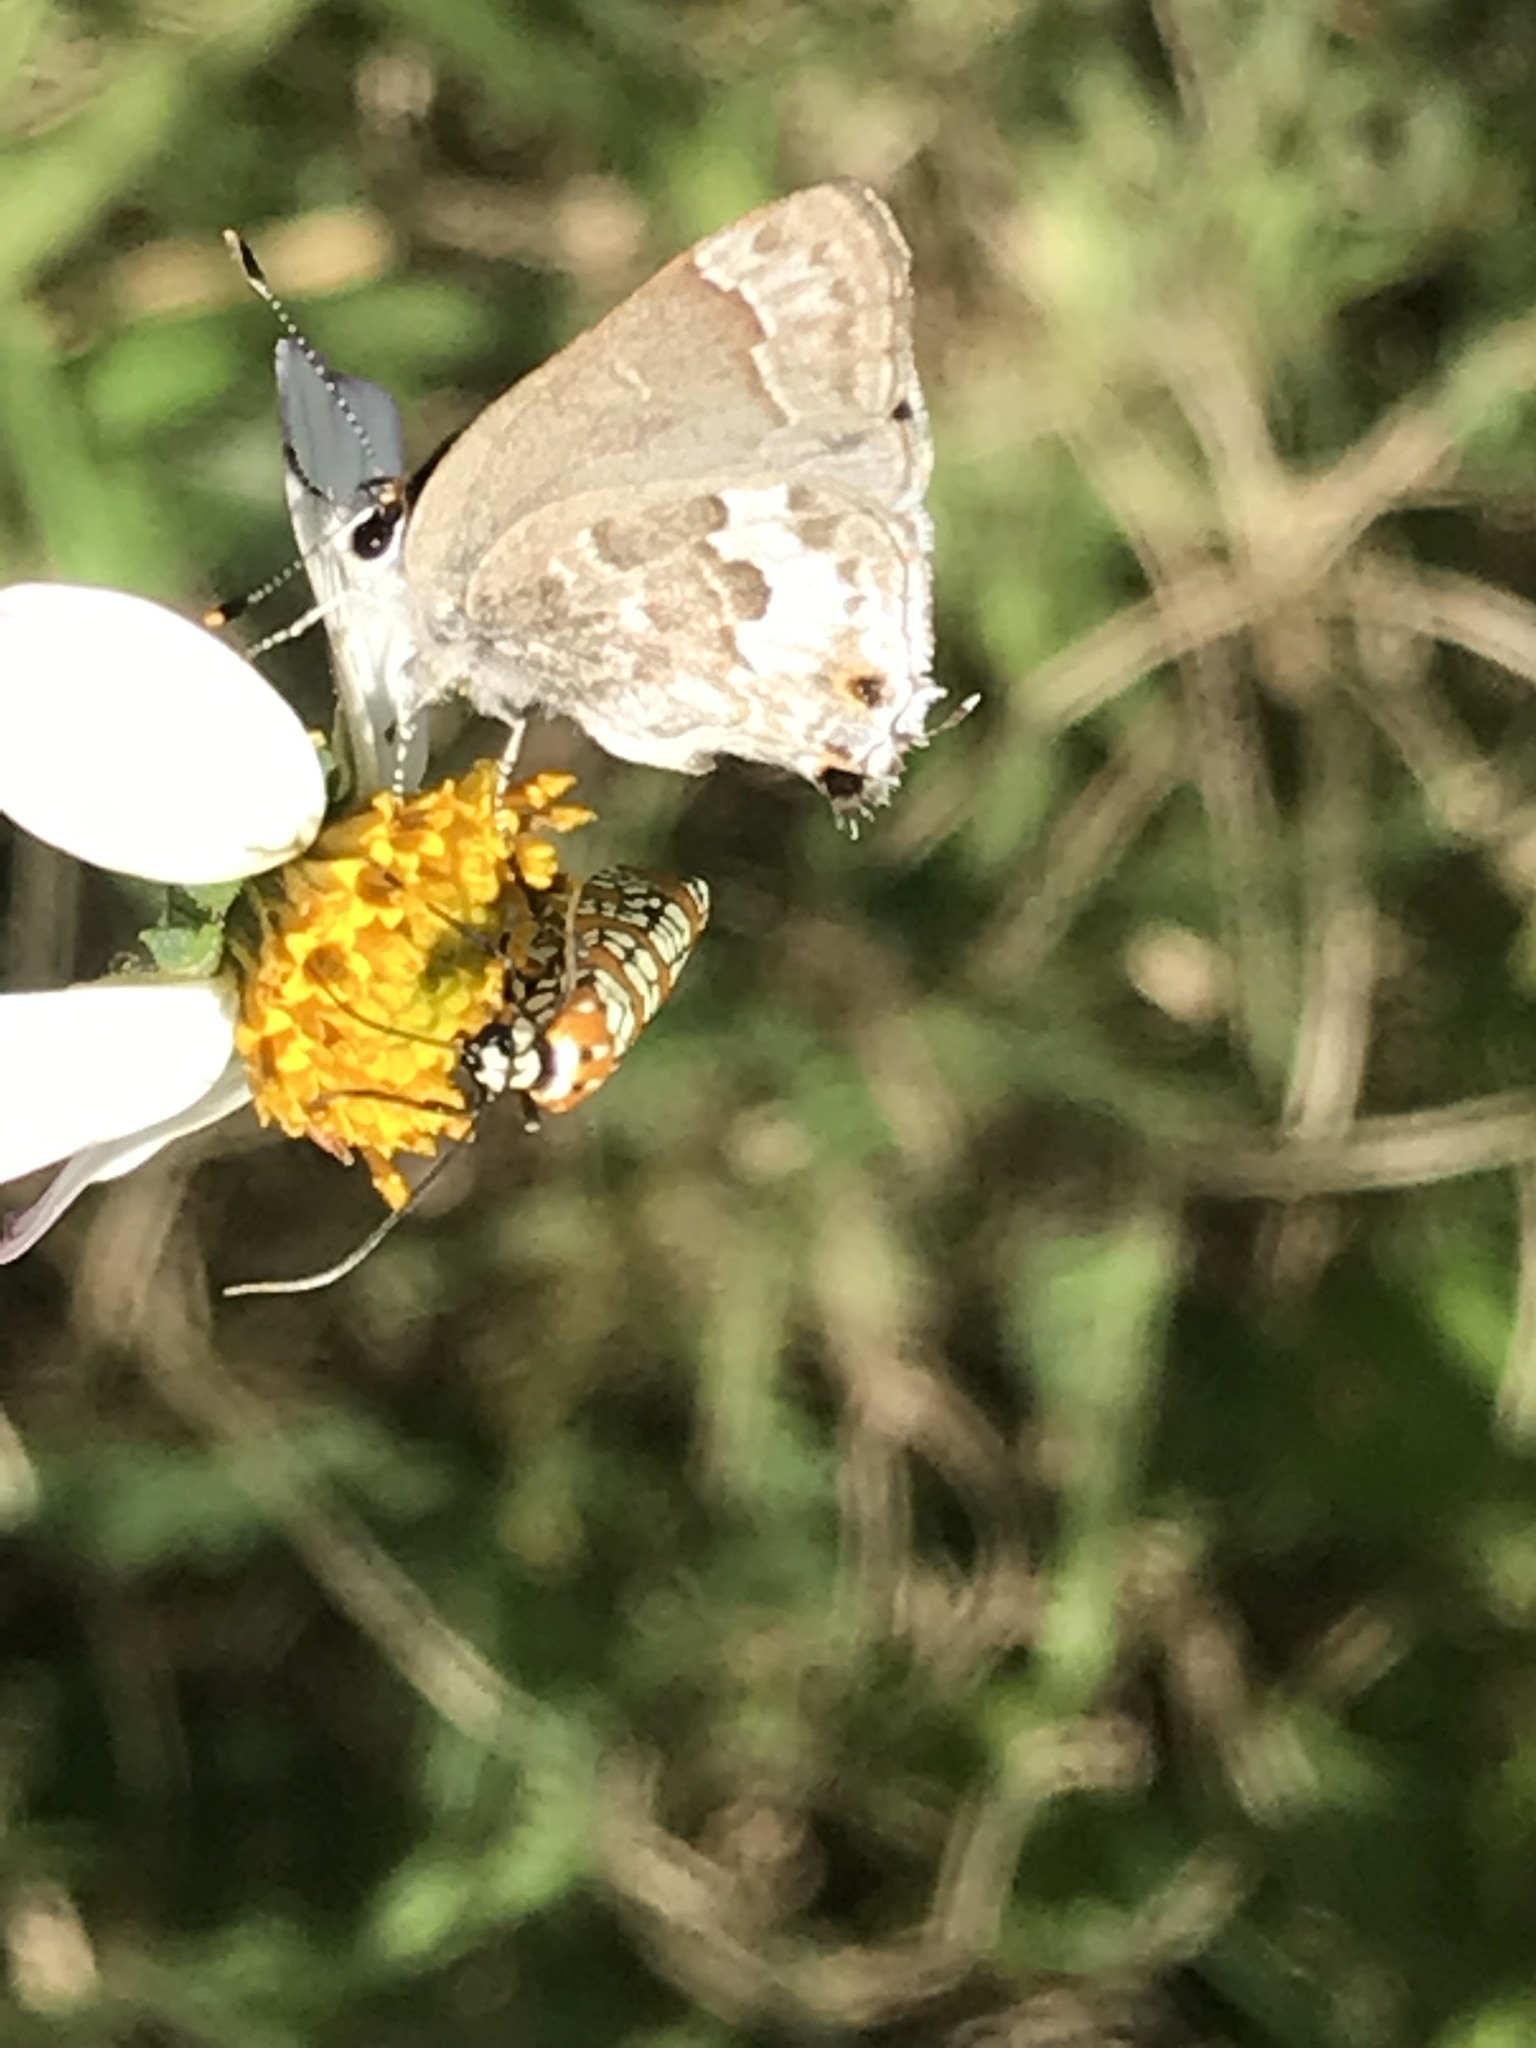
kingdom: Animalia
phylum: Arthropoda
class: Insecta
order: Lepidoptera
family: Lycaenidae
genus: Strymon
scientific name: Strymon alea
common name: Lacey's scrub-hairstreak
